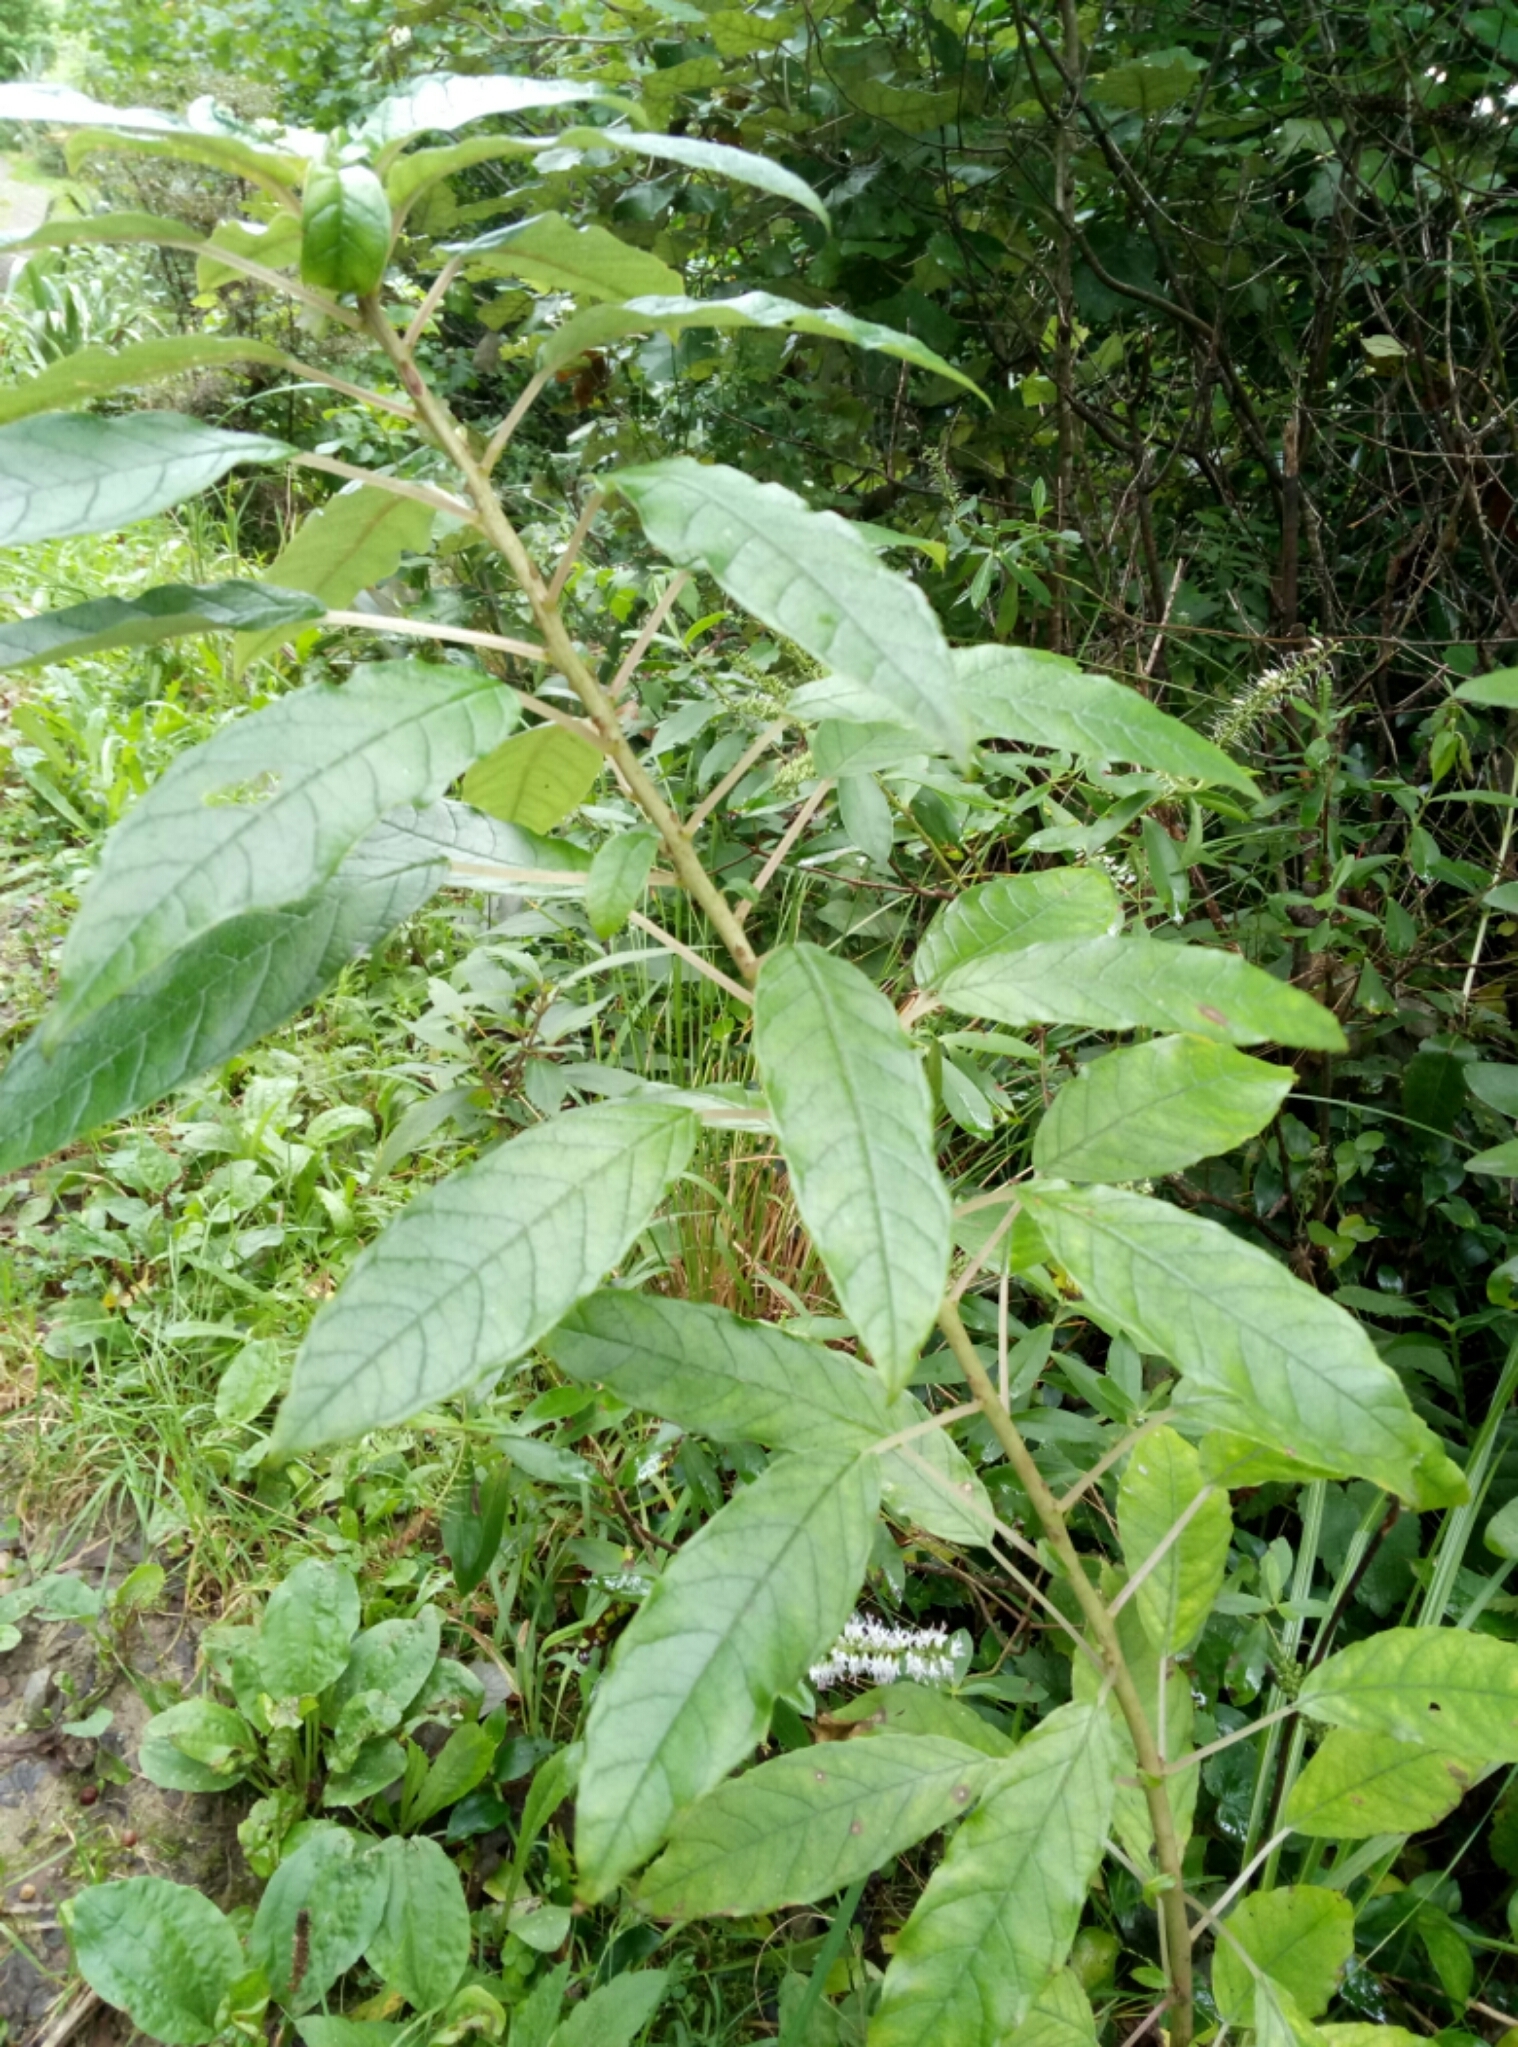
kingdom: Plantae
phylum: Tracheophyta
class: Magnoliopsida
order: Myrtales
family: Onagraceae
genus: Fuchsia
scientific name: Fuchsia excorticata
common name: Tree fuchsia
